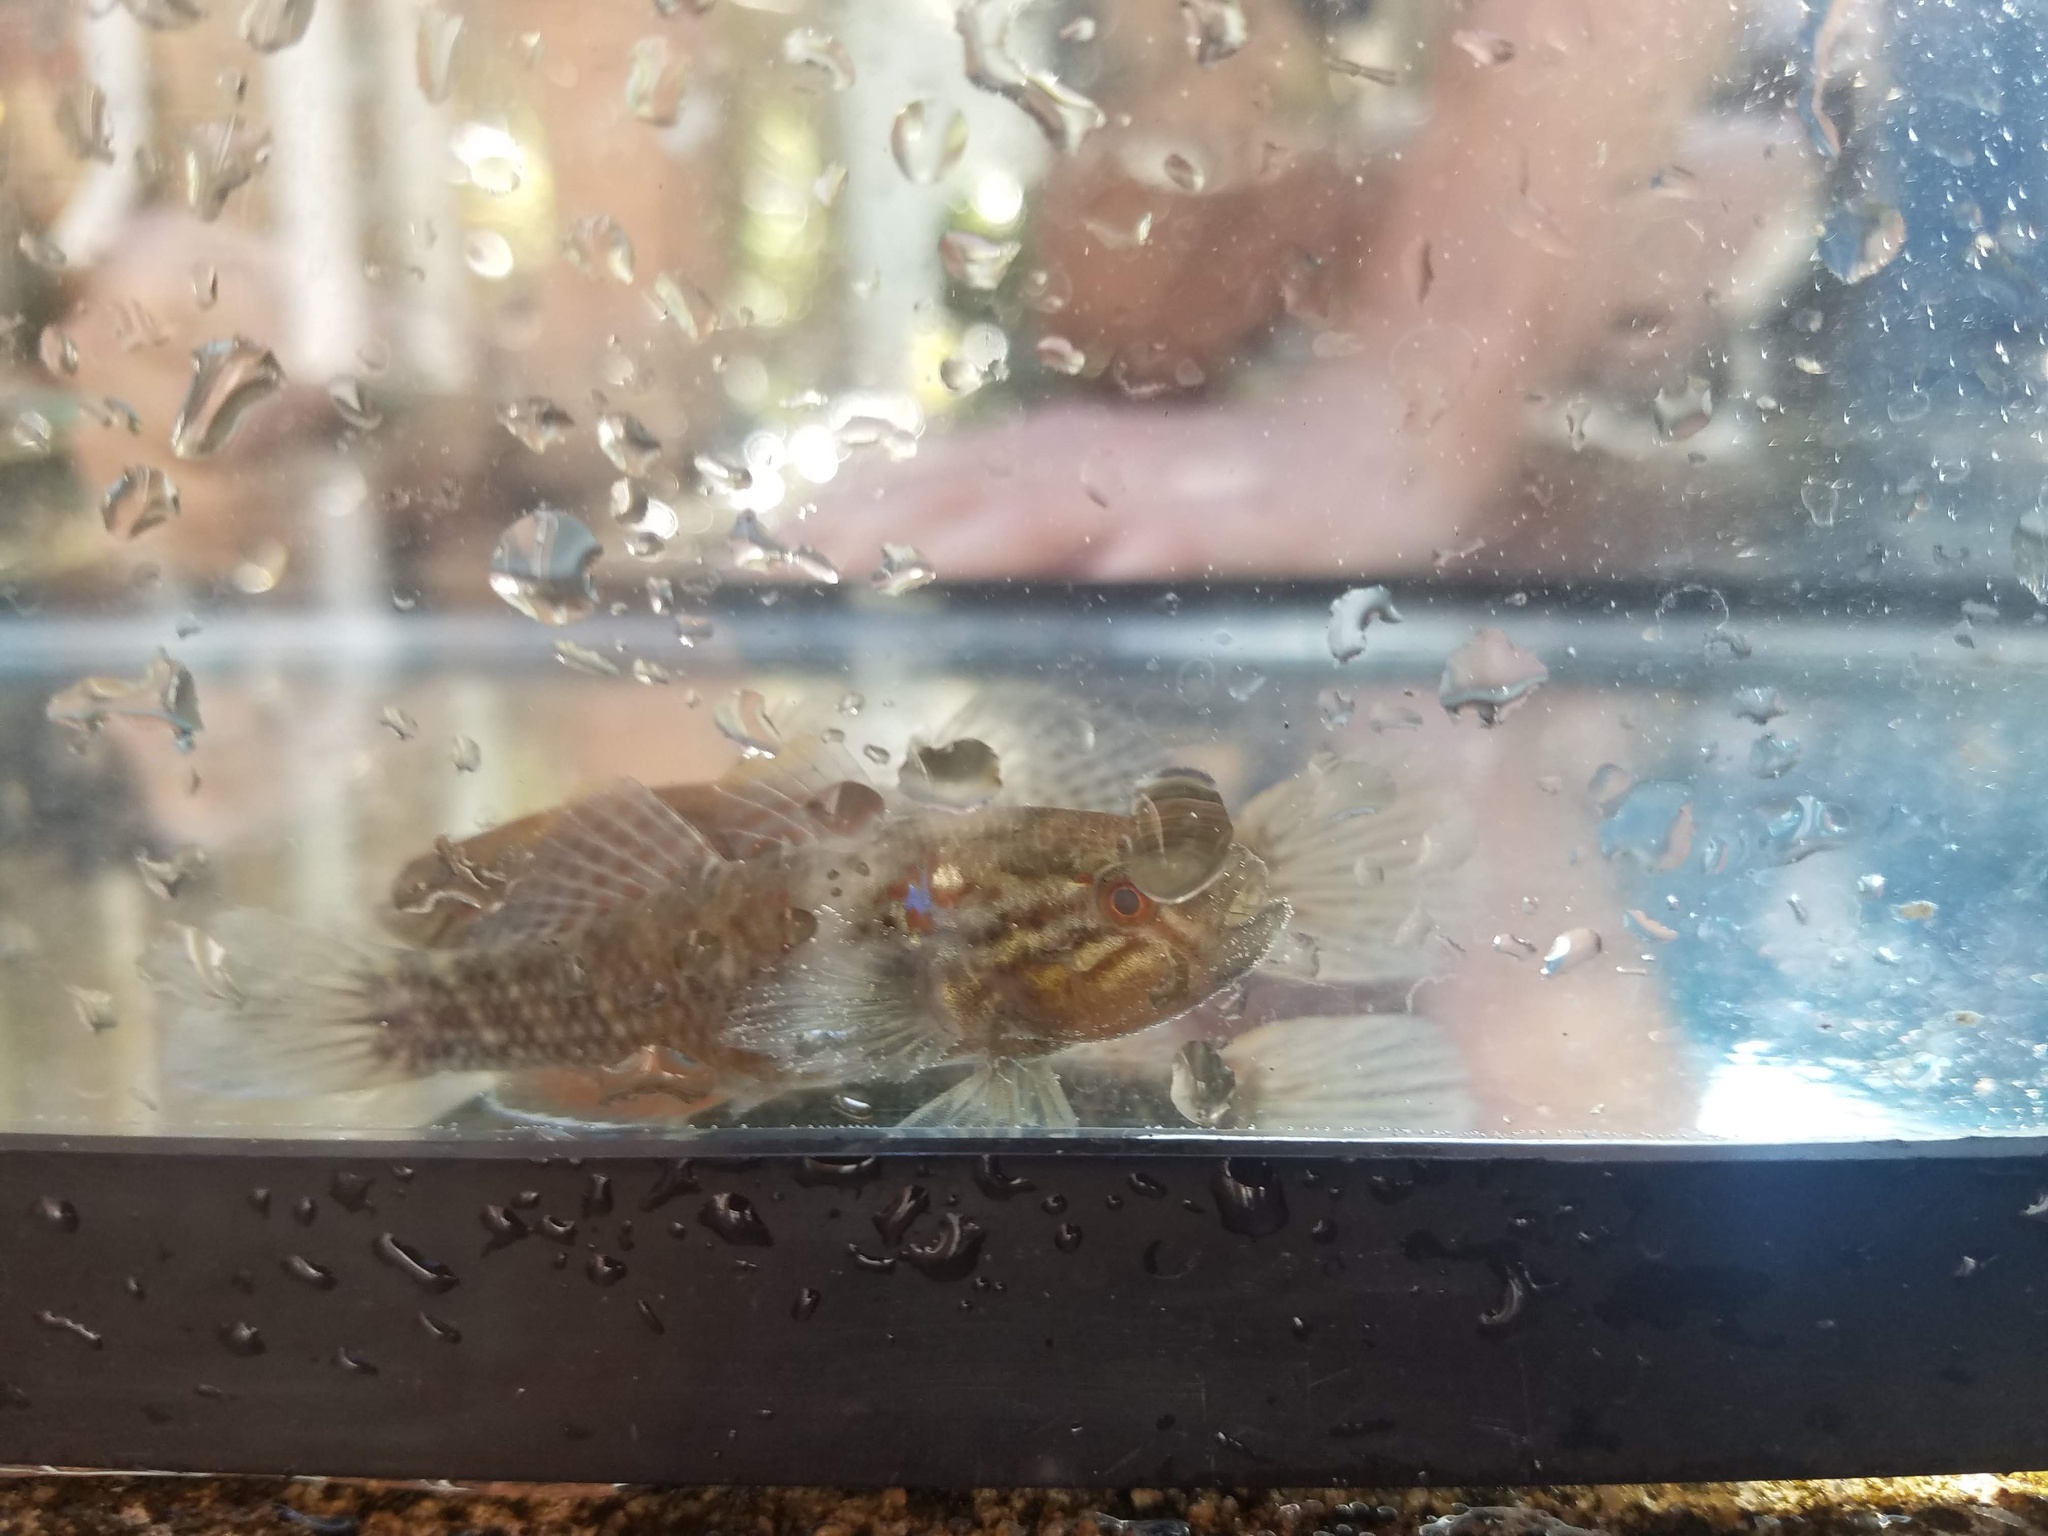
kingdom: Animalia
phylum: Chordata
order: Perciformes
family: Eleotridae
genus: Dormitator
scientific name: Dormitator maculatus
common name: Fat sleeper
